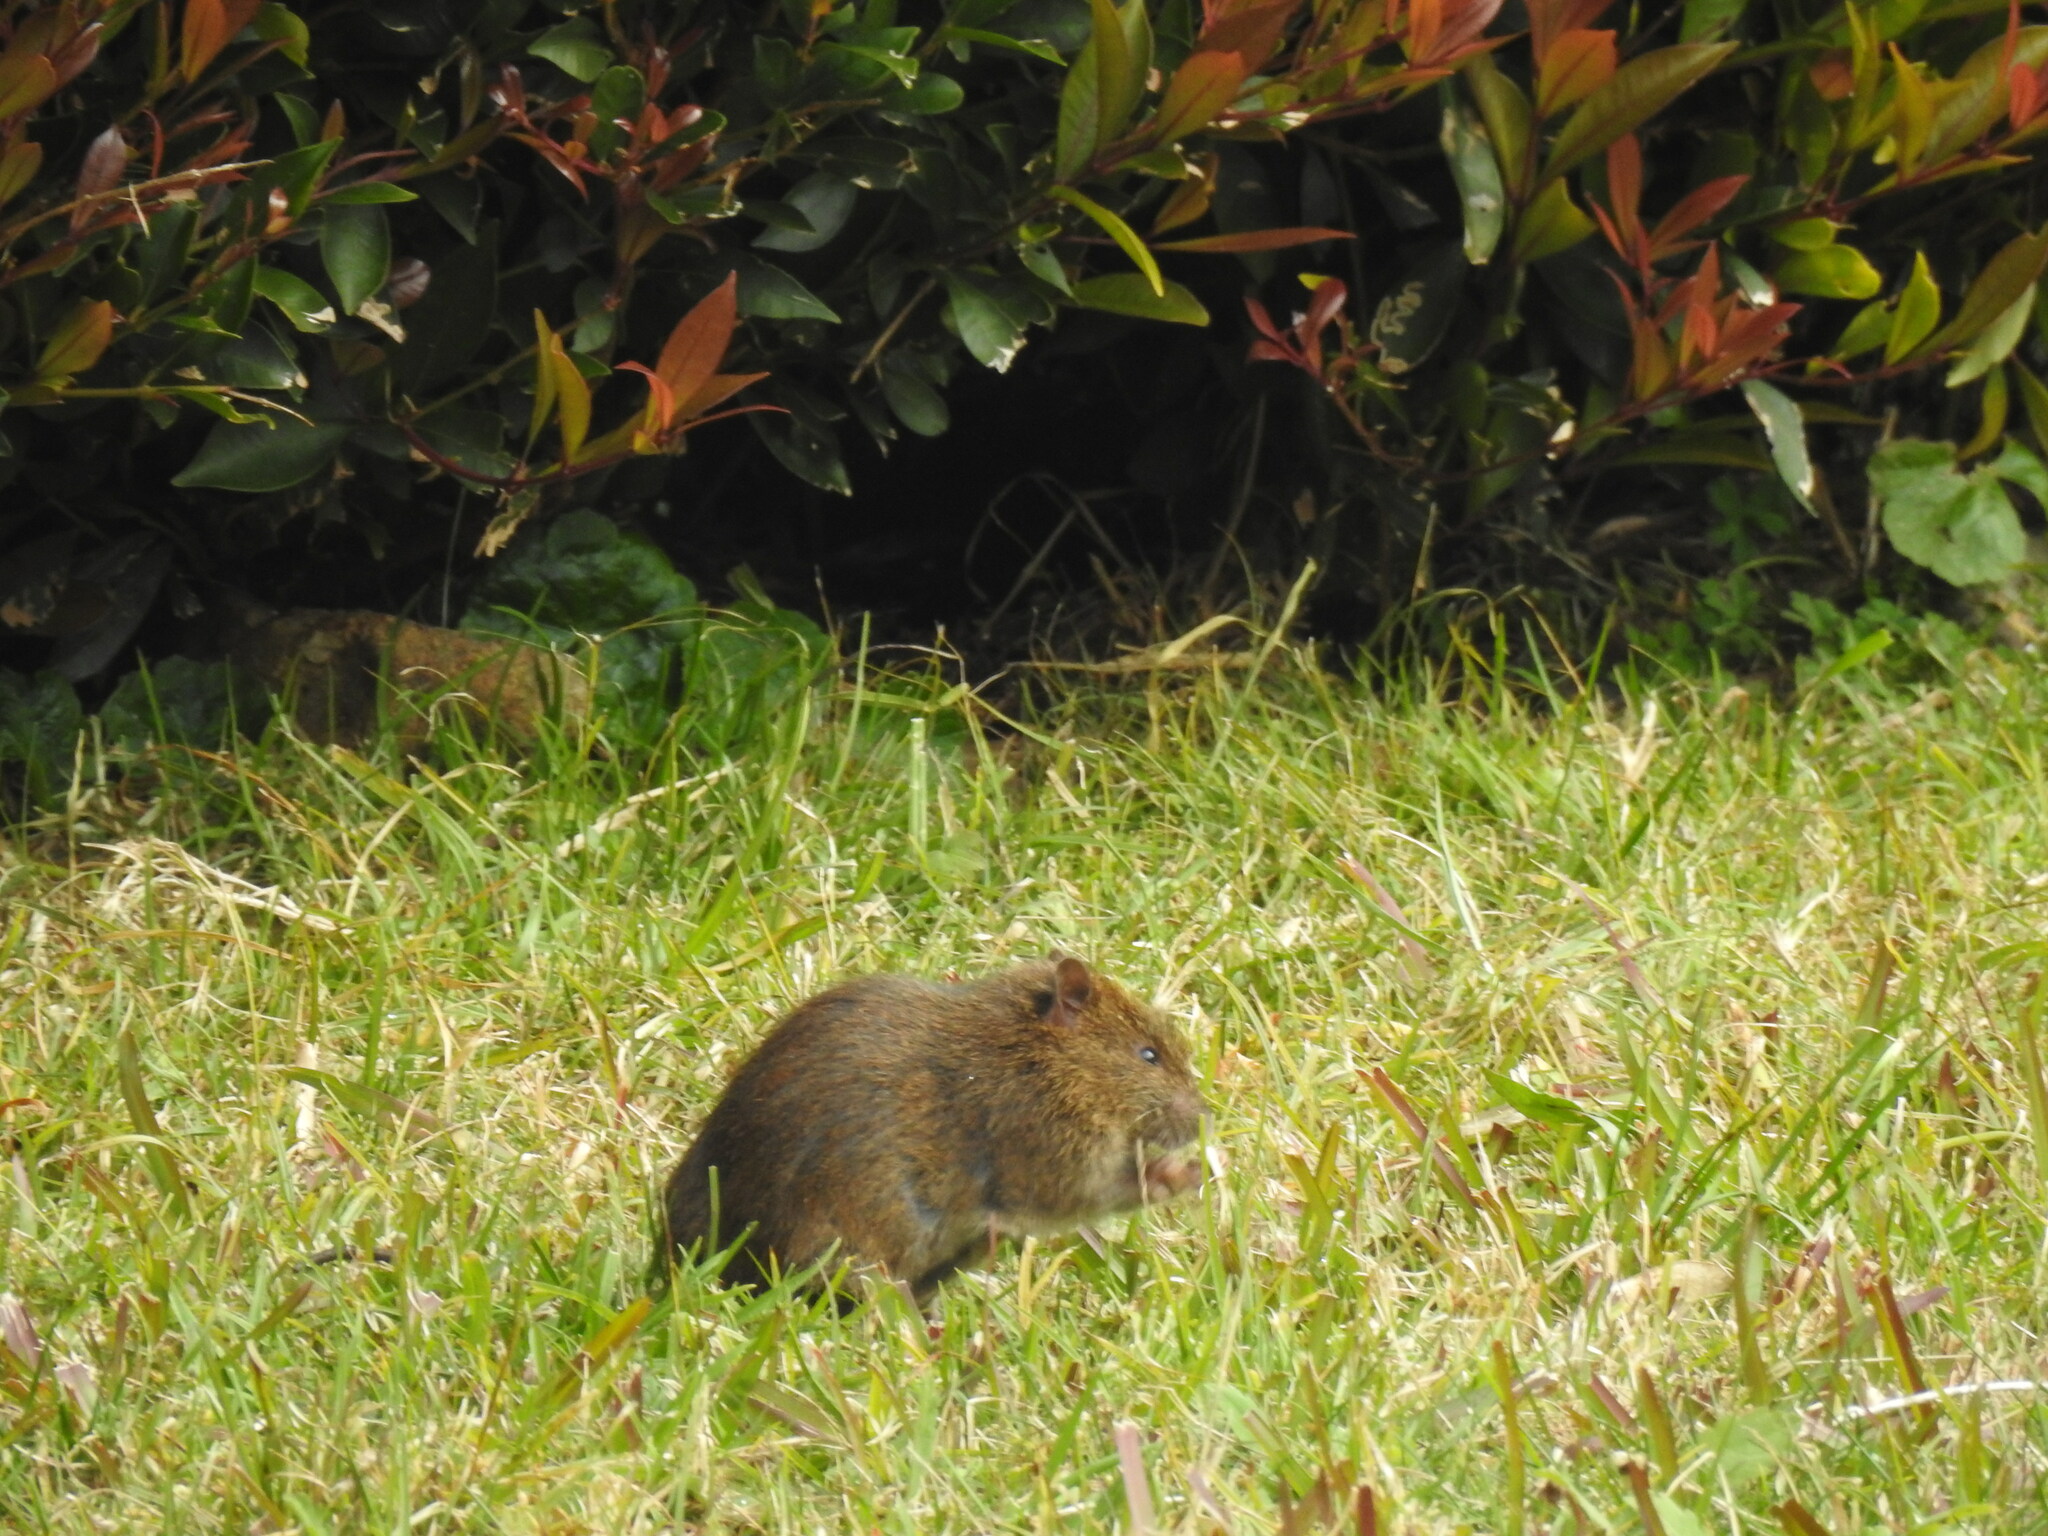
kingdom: Animalia
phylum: Chordata
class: Mammalia
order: Rodentia
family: Muridae
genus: Rattus
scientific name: Rattus lutreolus
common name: Australian swamp rat
